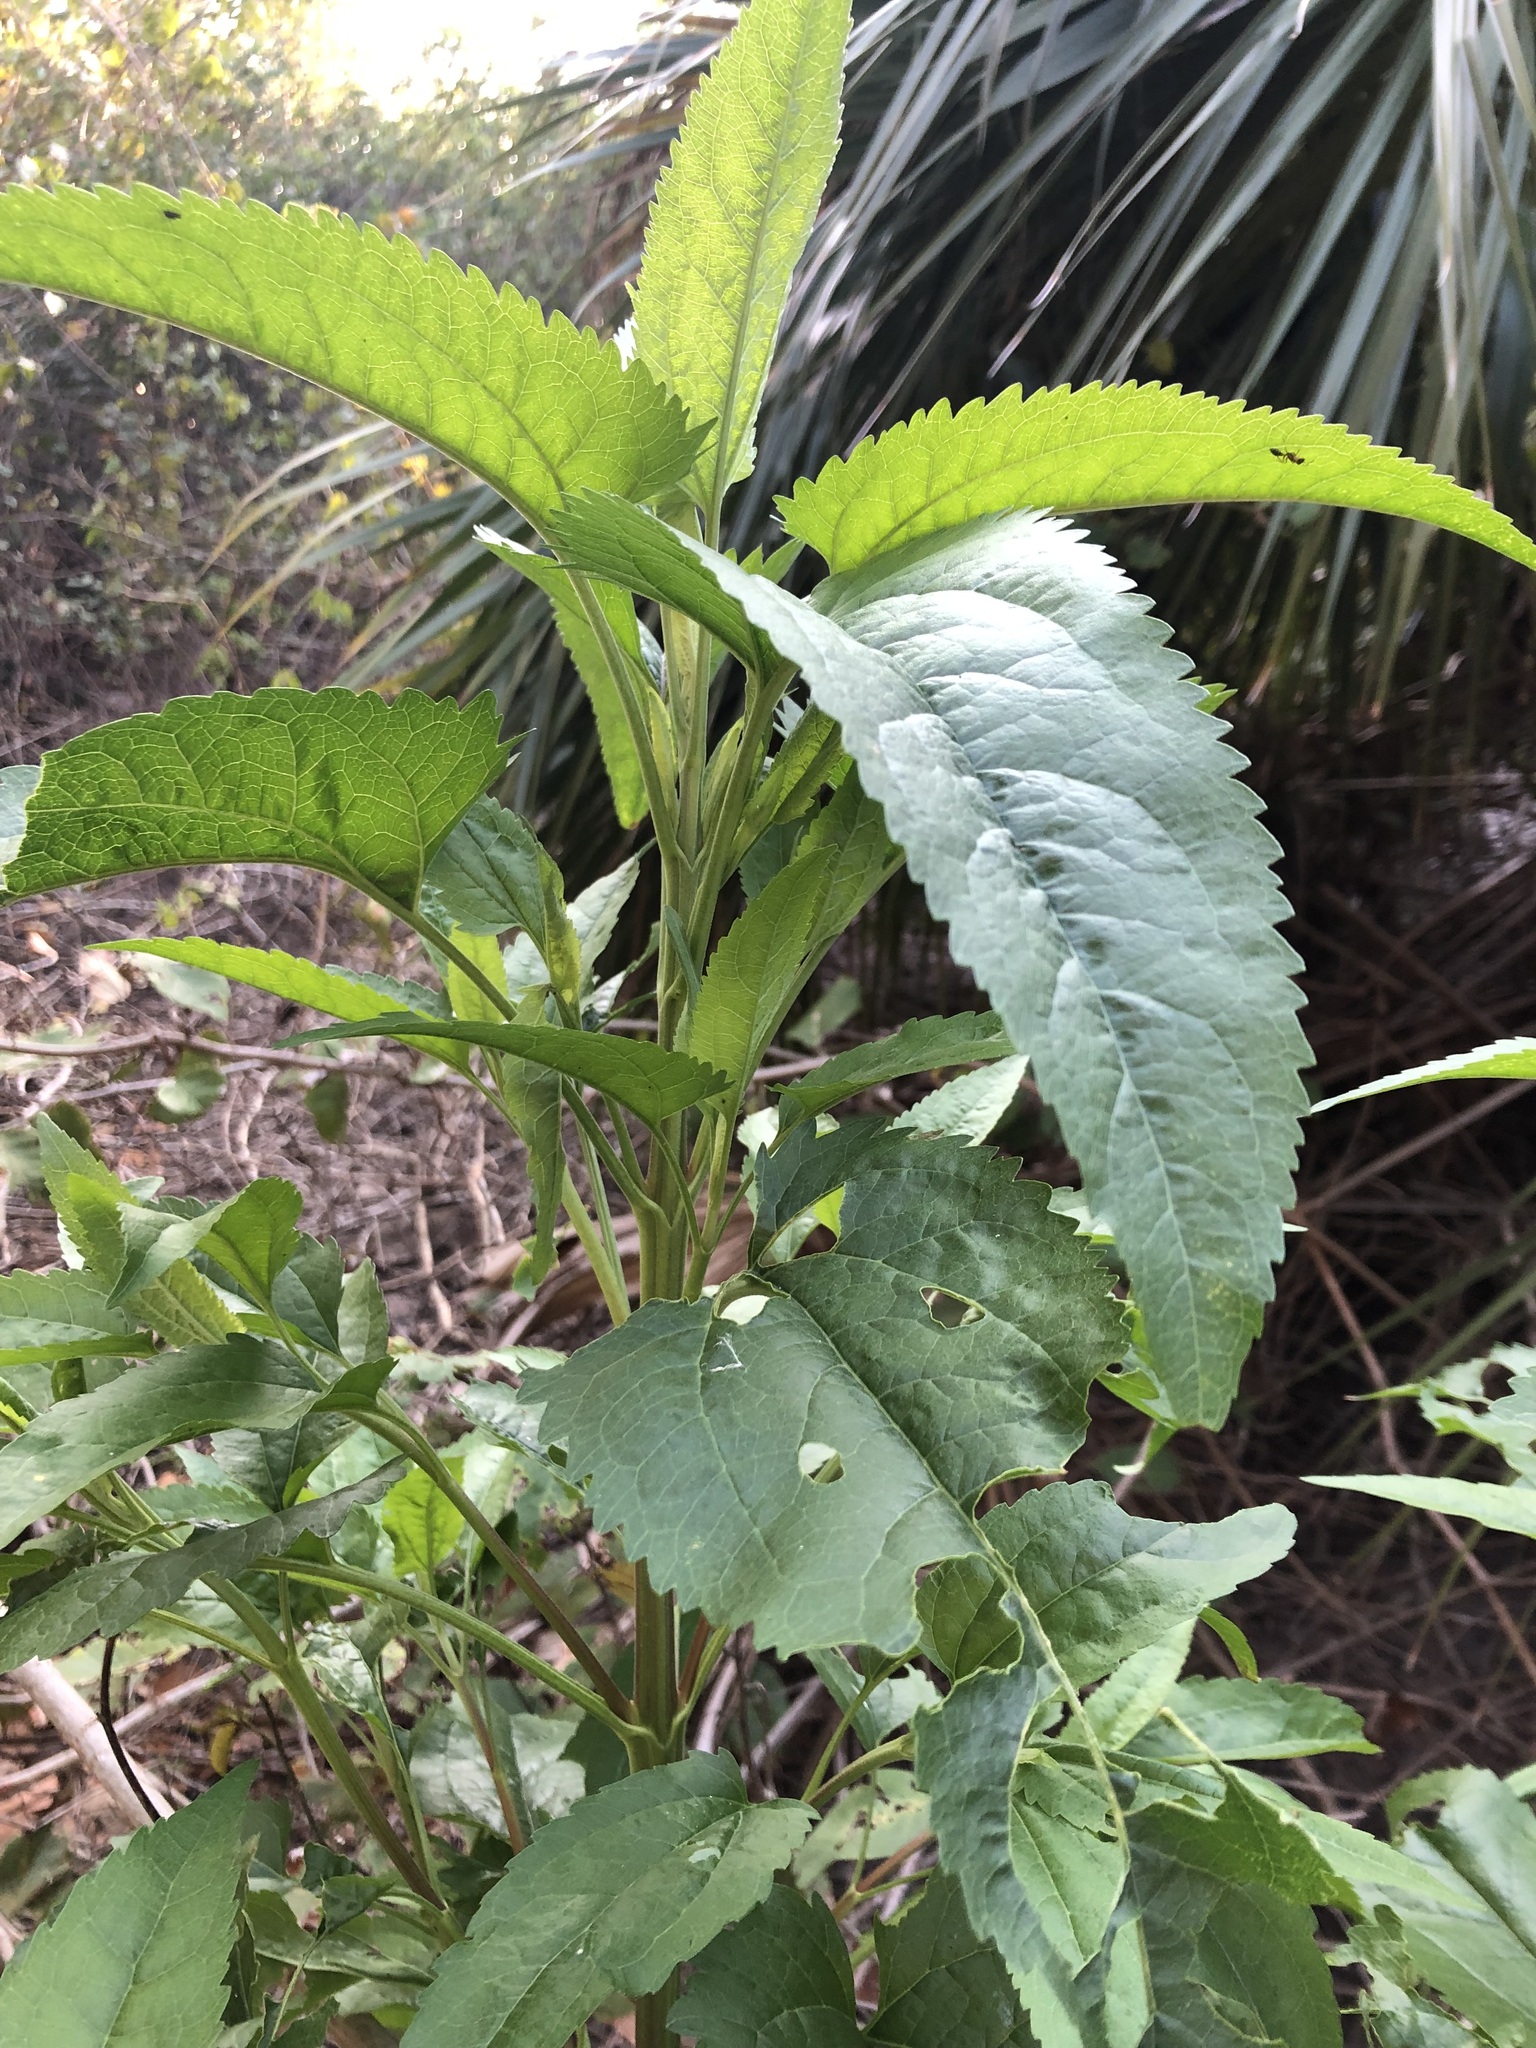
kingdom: Plantae
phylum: Tracheophyta
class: Magnoliopsida
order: Asterales
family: Asteraceae
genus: Eupatorium
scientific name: Eupatorium serotinum
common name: Late boneset
